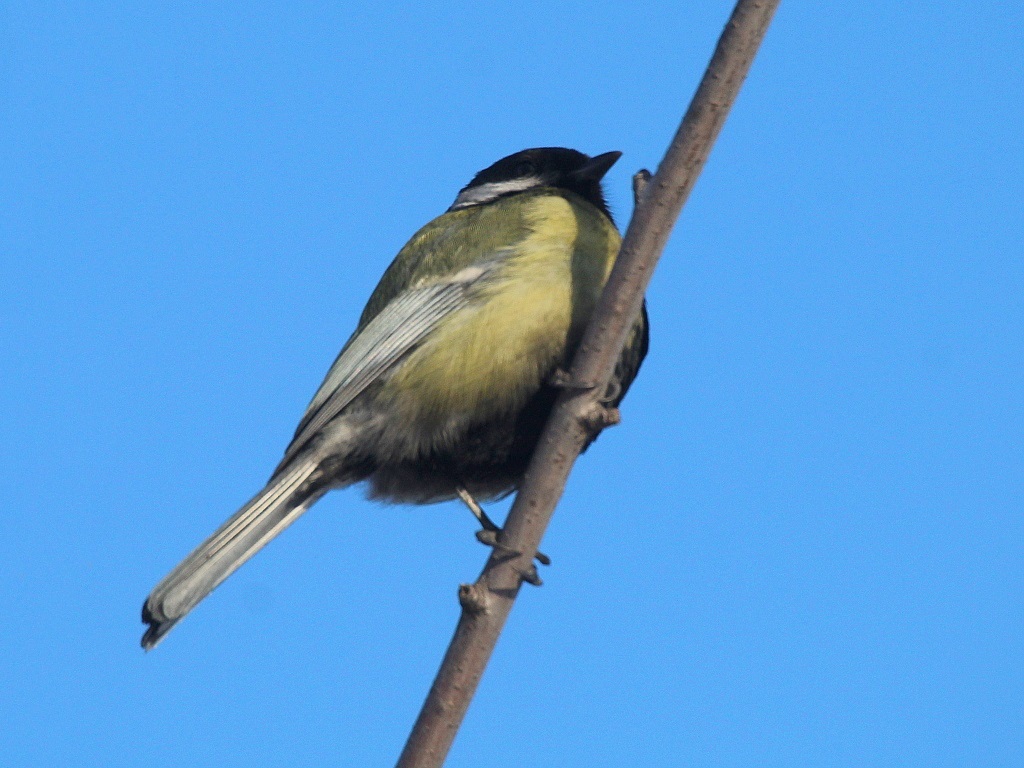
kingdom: Animalia
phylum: Chordata
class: Aves
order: Passeriformes
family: Paridae
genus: Parus
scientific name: Parus major
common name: Great tit
